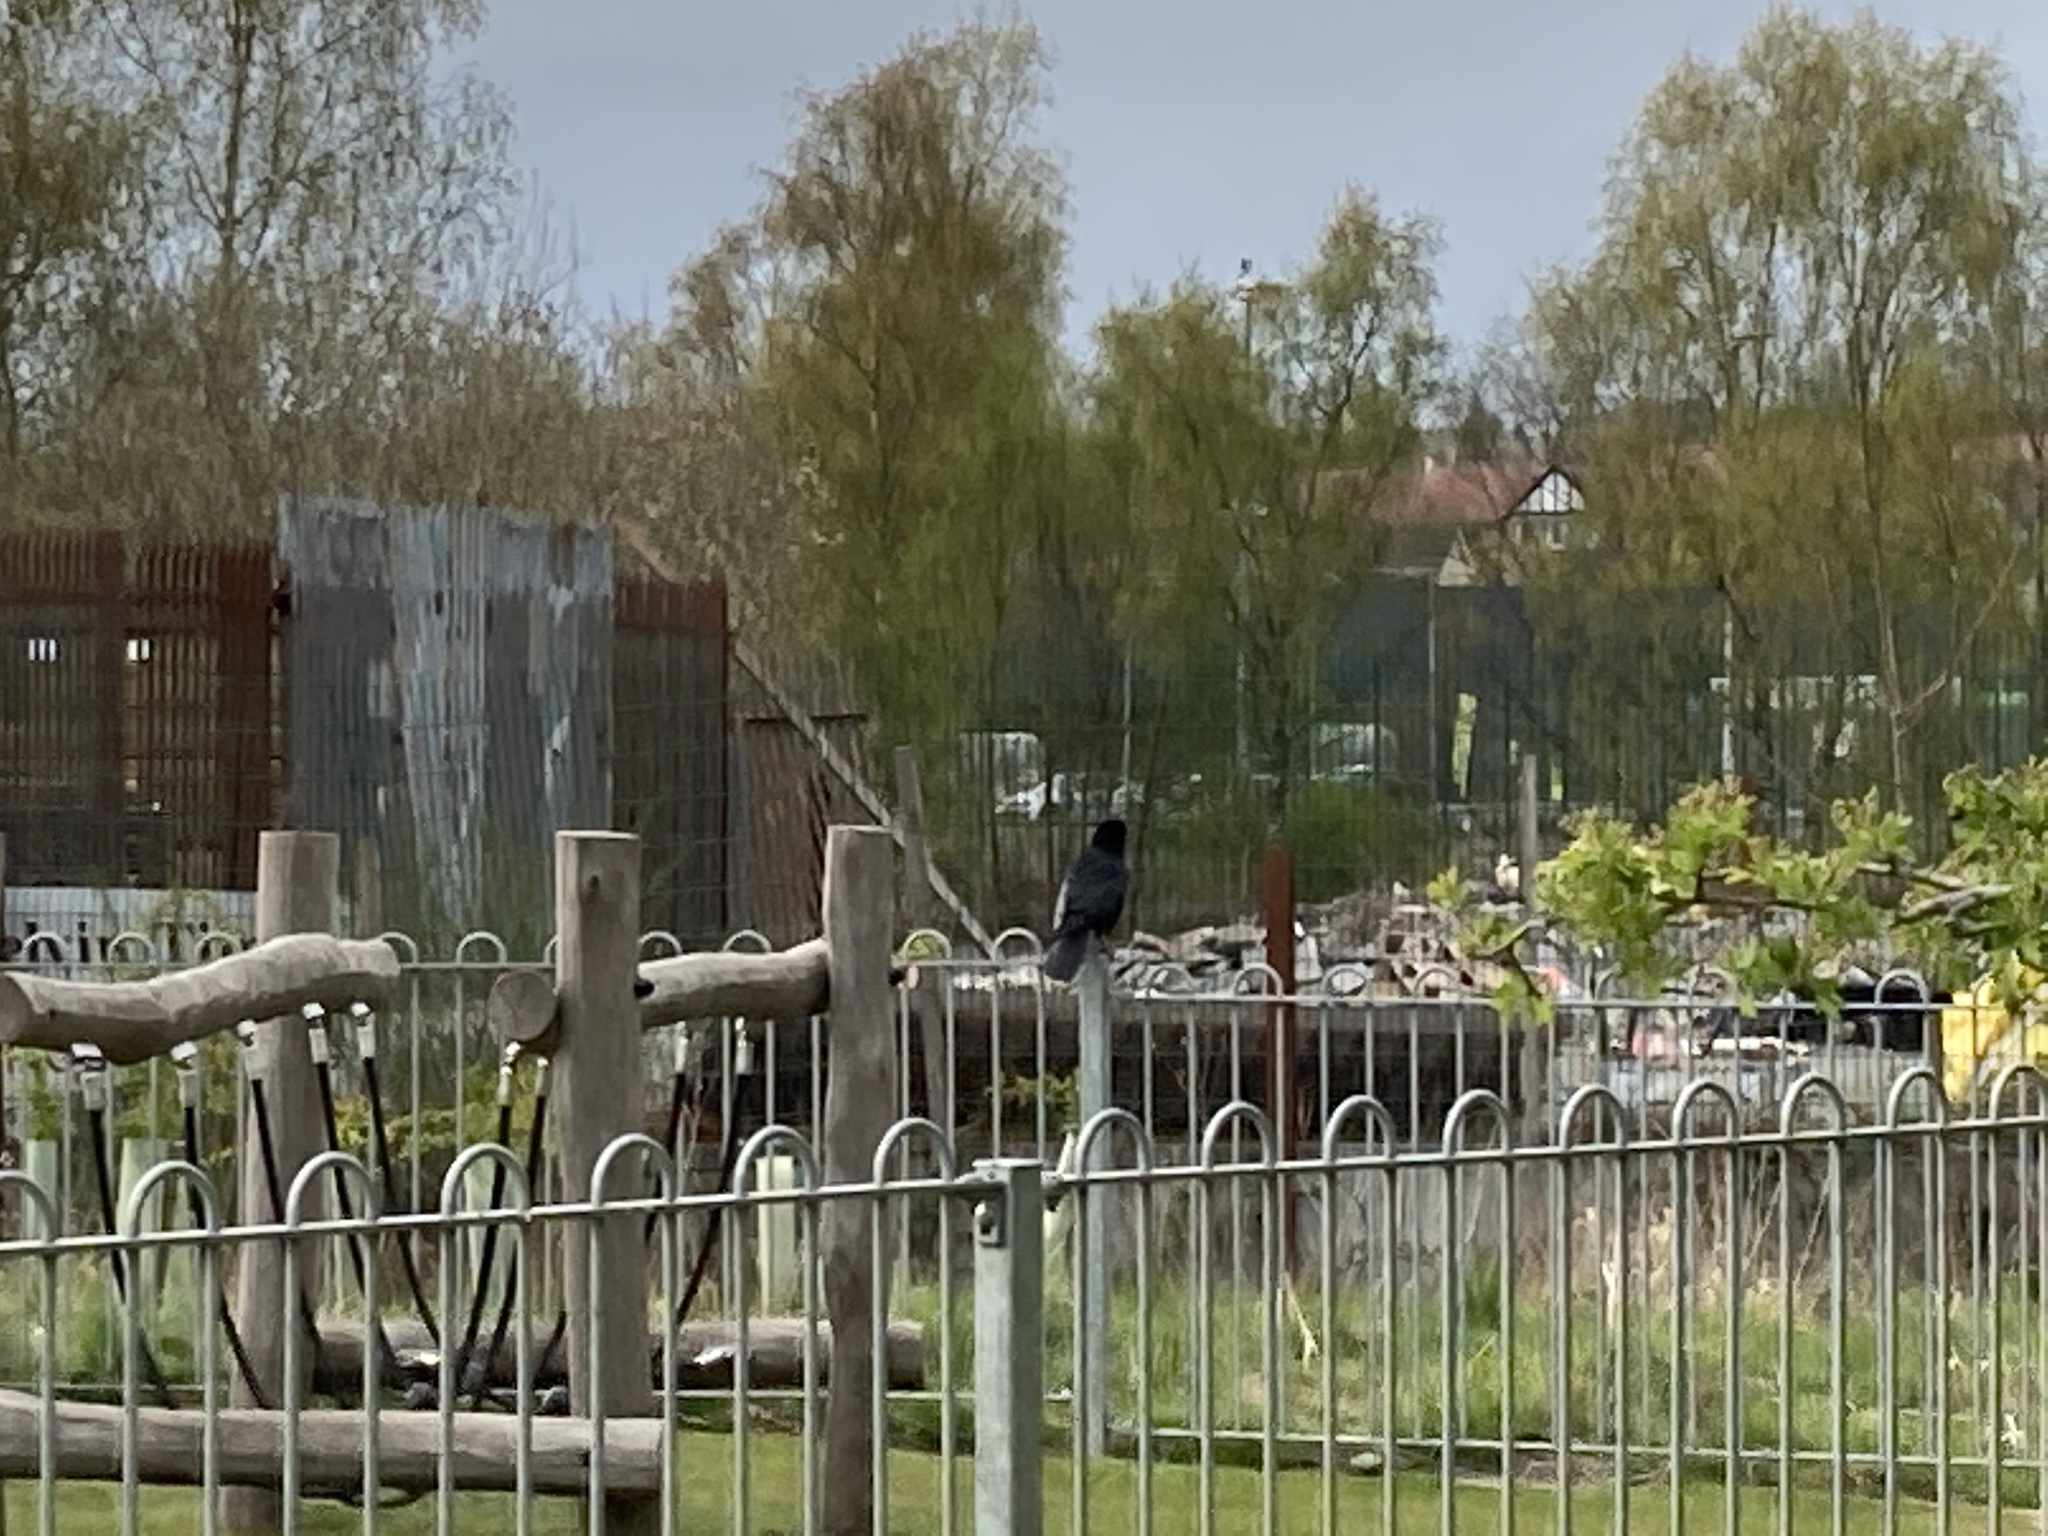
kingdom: Animalia
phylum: Chordata
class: Aves
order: Passeriformes
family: Corvidae
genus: Corvus
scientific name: Corvus corone
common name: Carrion crow
